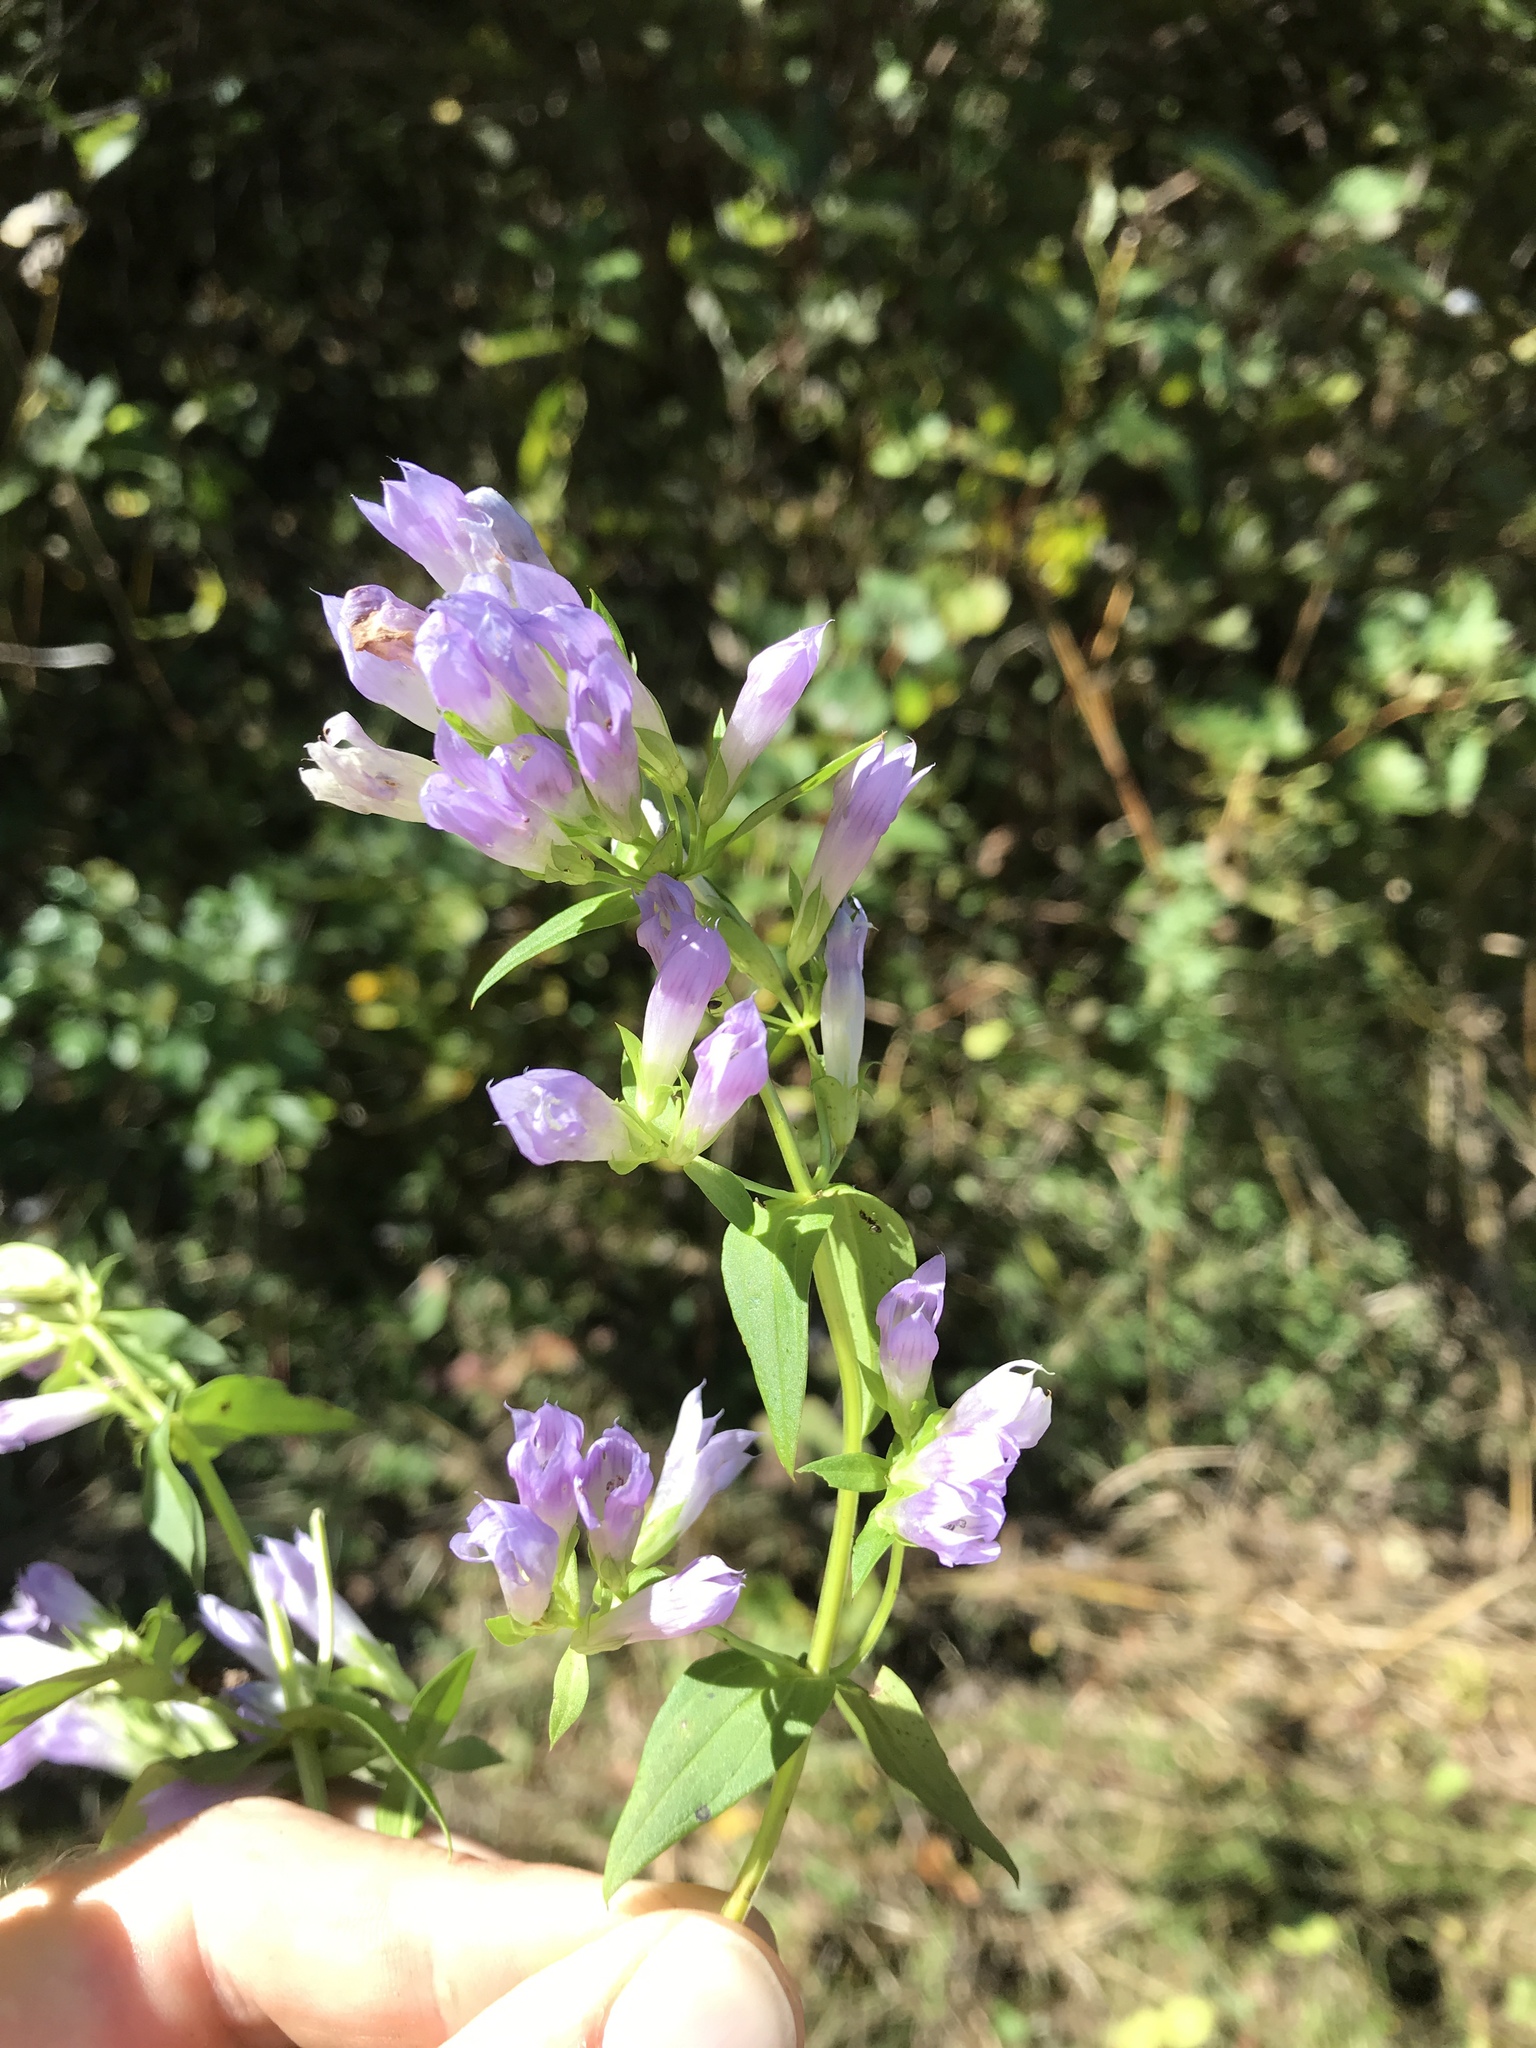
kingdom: Plantae
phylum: Tracheophyta
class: Magnoliopsida
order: Gentianales
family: Gentianaceae
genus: Gentianella
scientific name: Gentianella quinquefolia
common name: Agueweed
